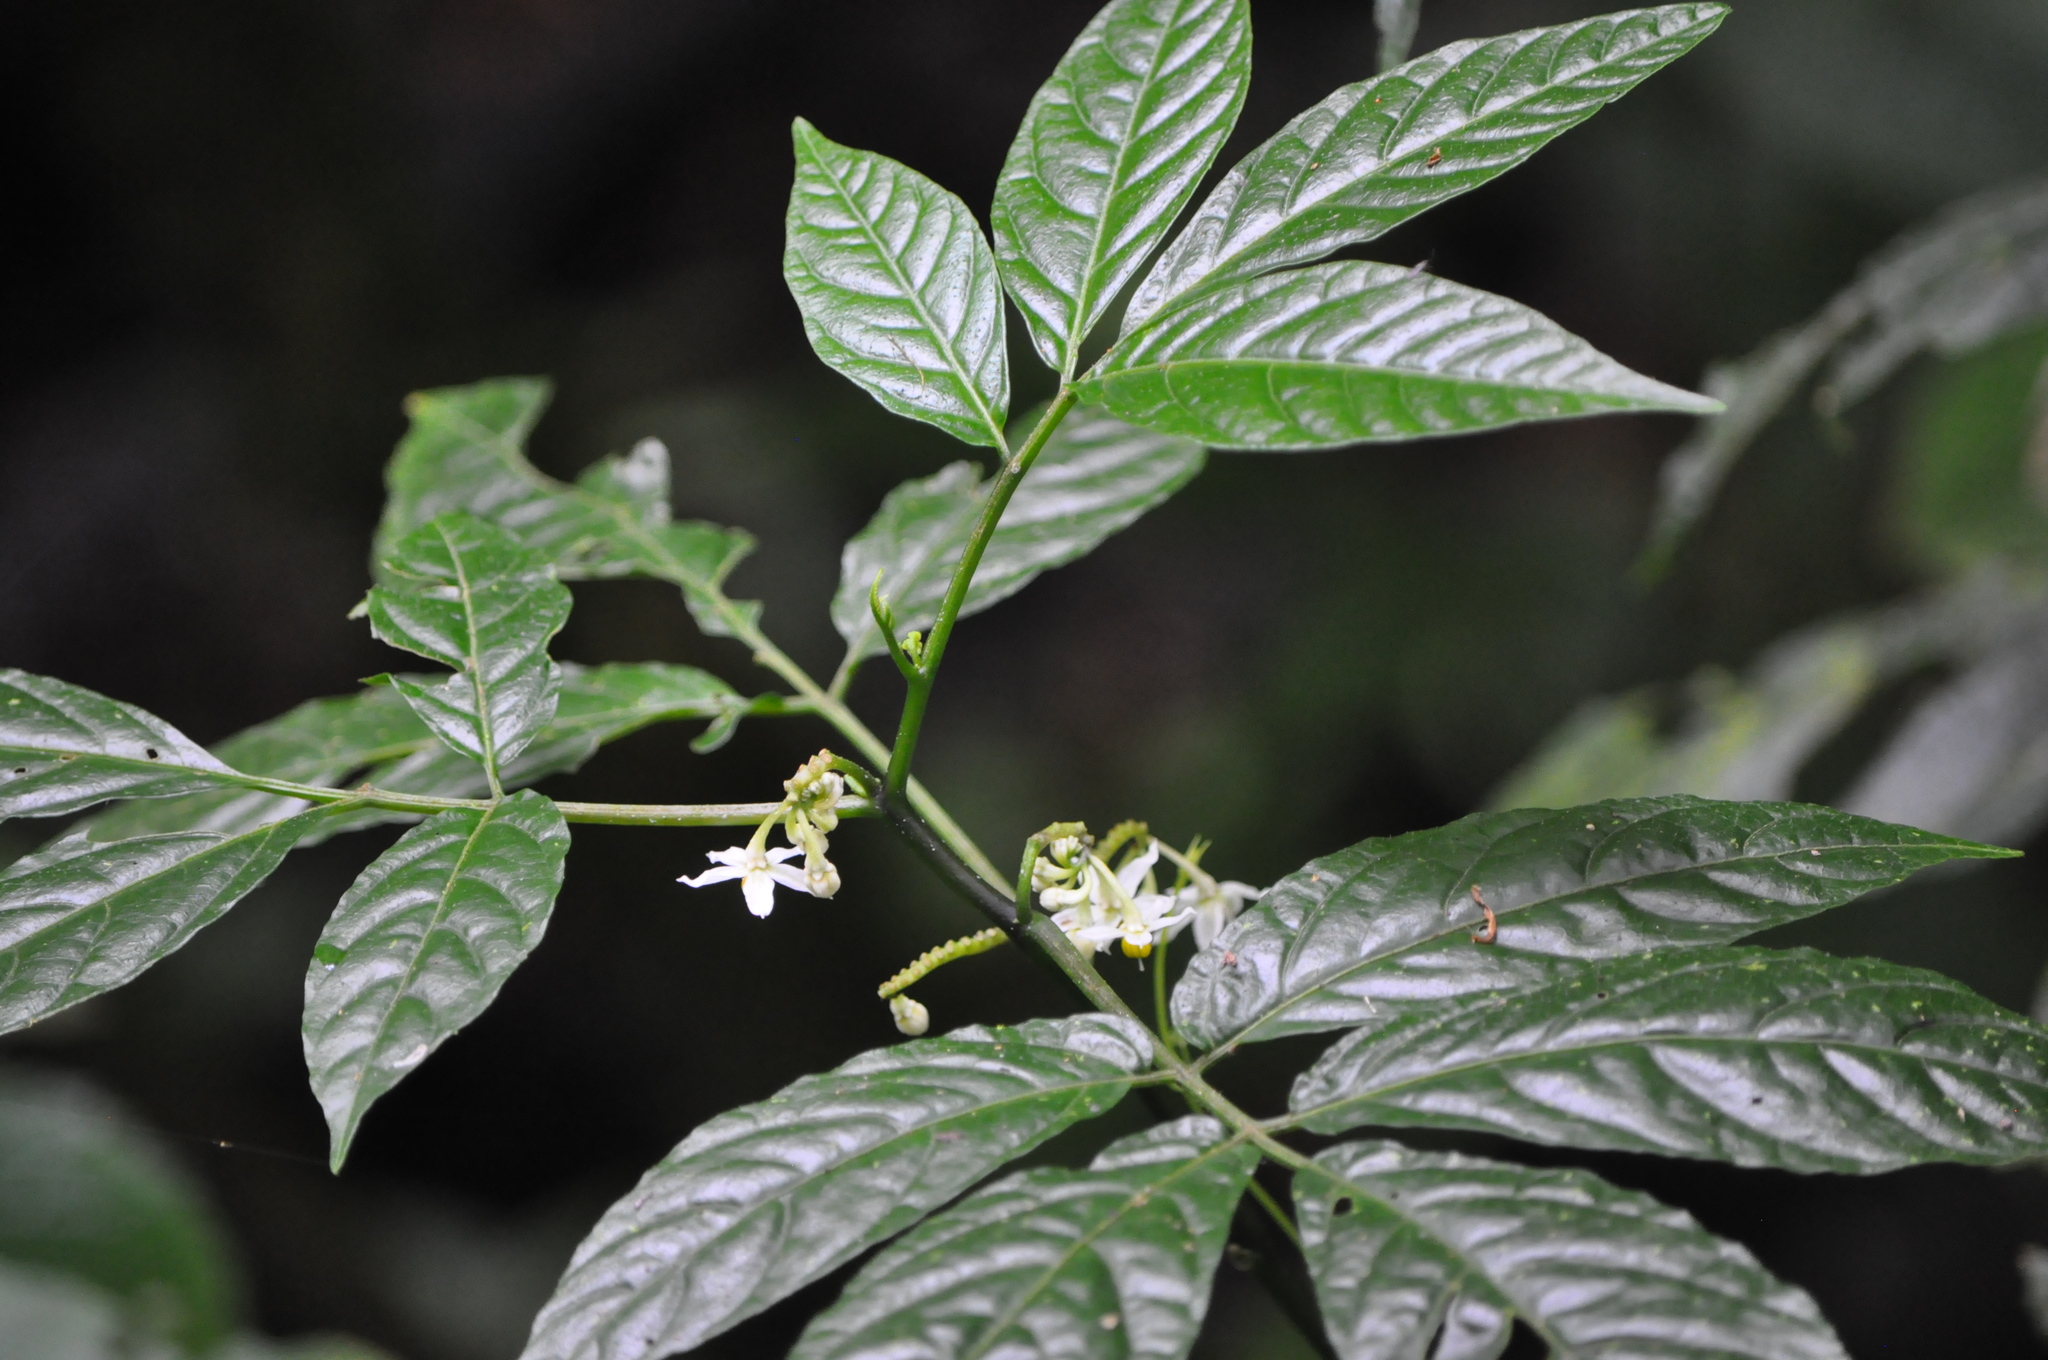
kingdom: Plantae
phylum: Tracheophyta
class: Magnoliopsida
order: Solanales
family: Solanaceae
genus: Solanum
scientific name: Solanum trizygum
